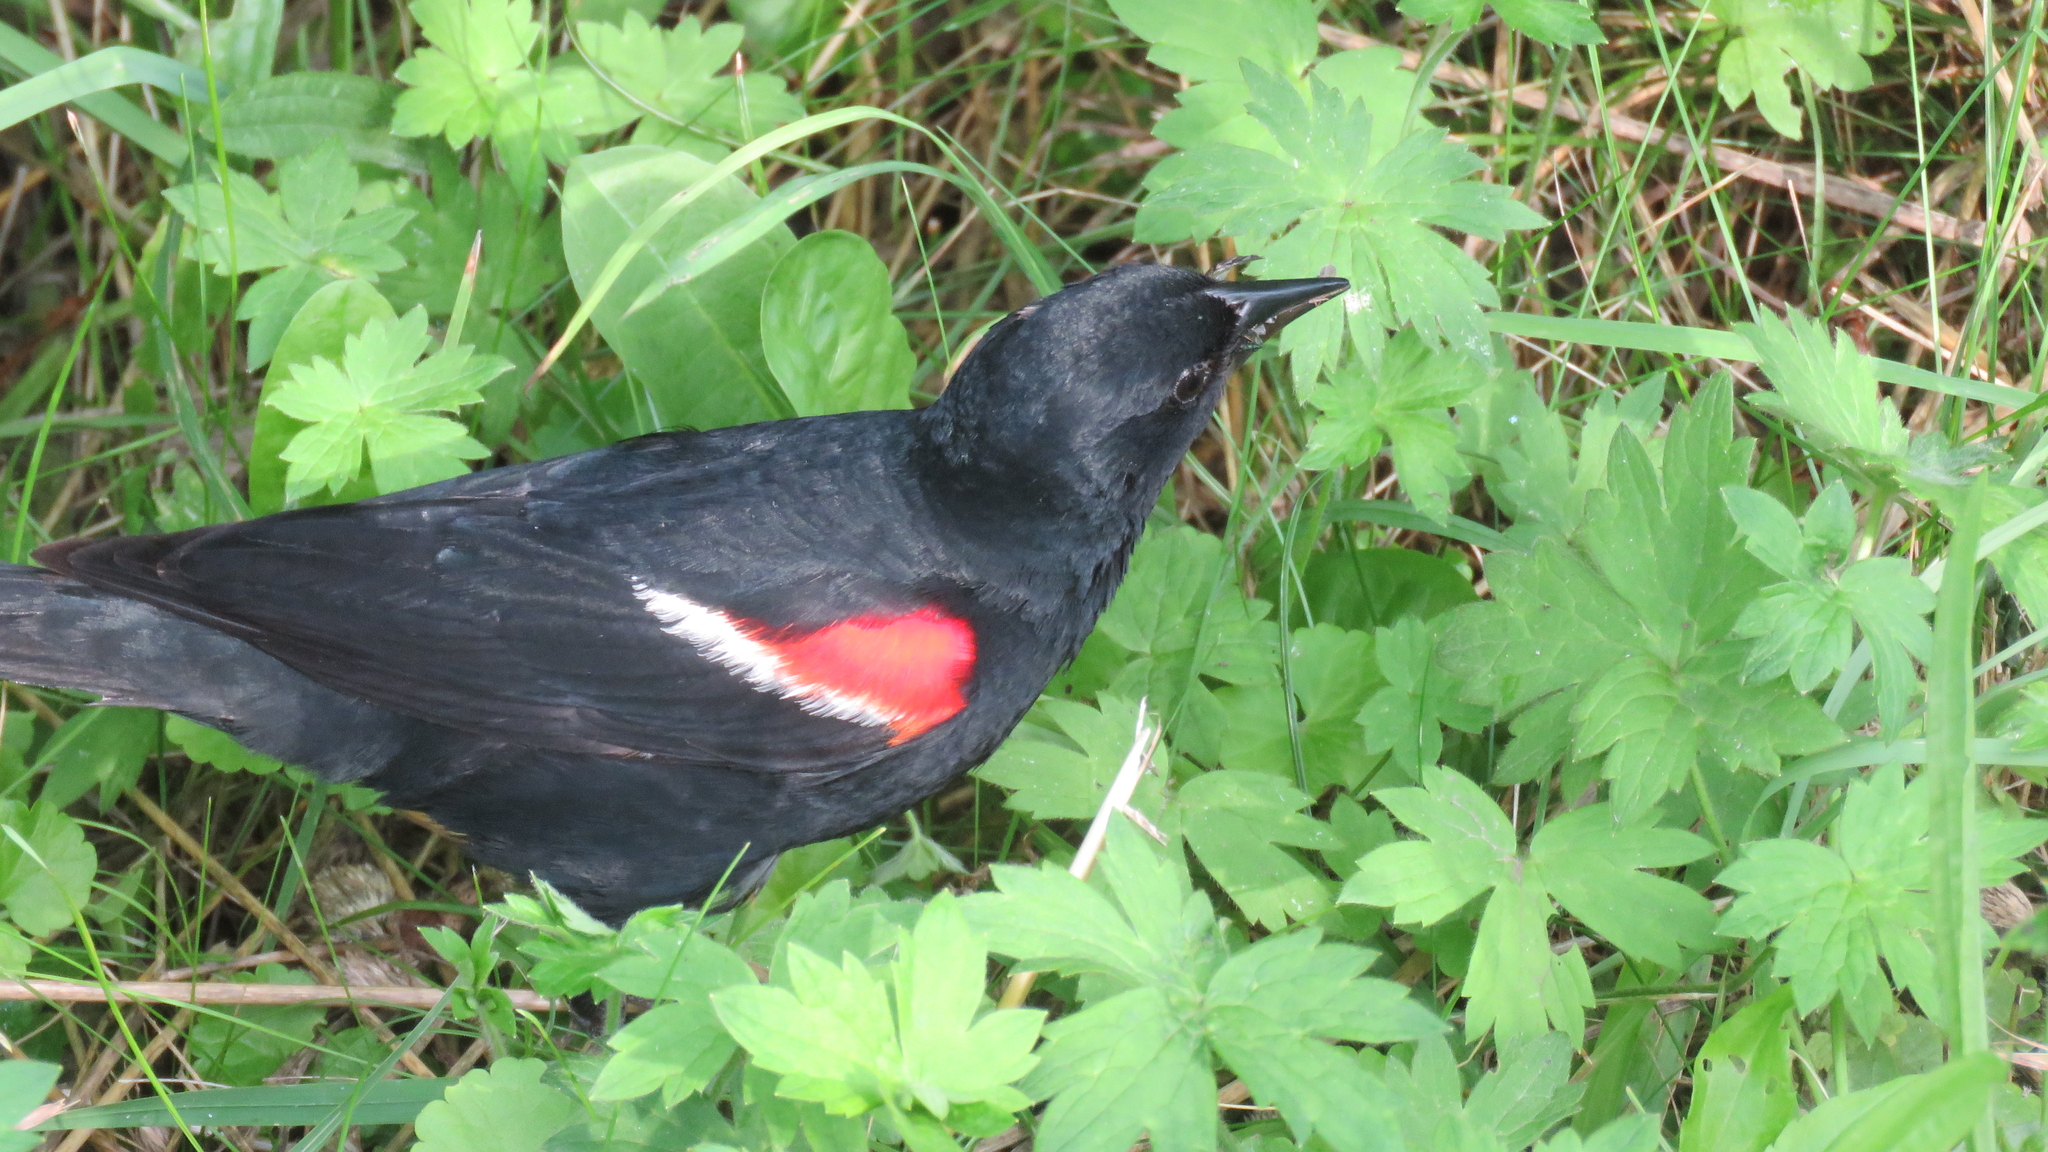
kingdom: Animalia
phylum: Chordata
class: Aves
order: Passeriformes
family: Icteridae
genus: Agelaius
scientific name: Agelaius phoeniceus
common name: Red-winged blackbird
